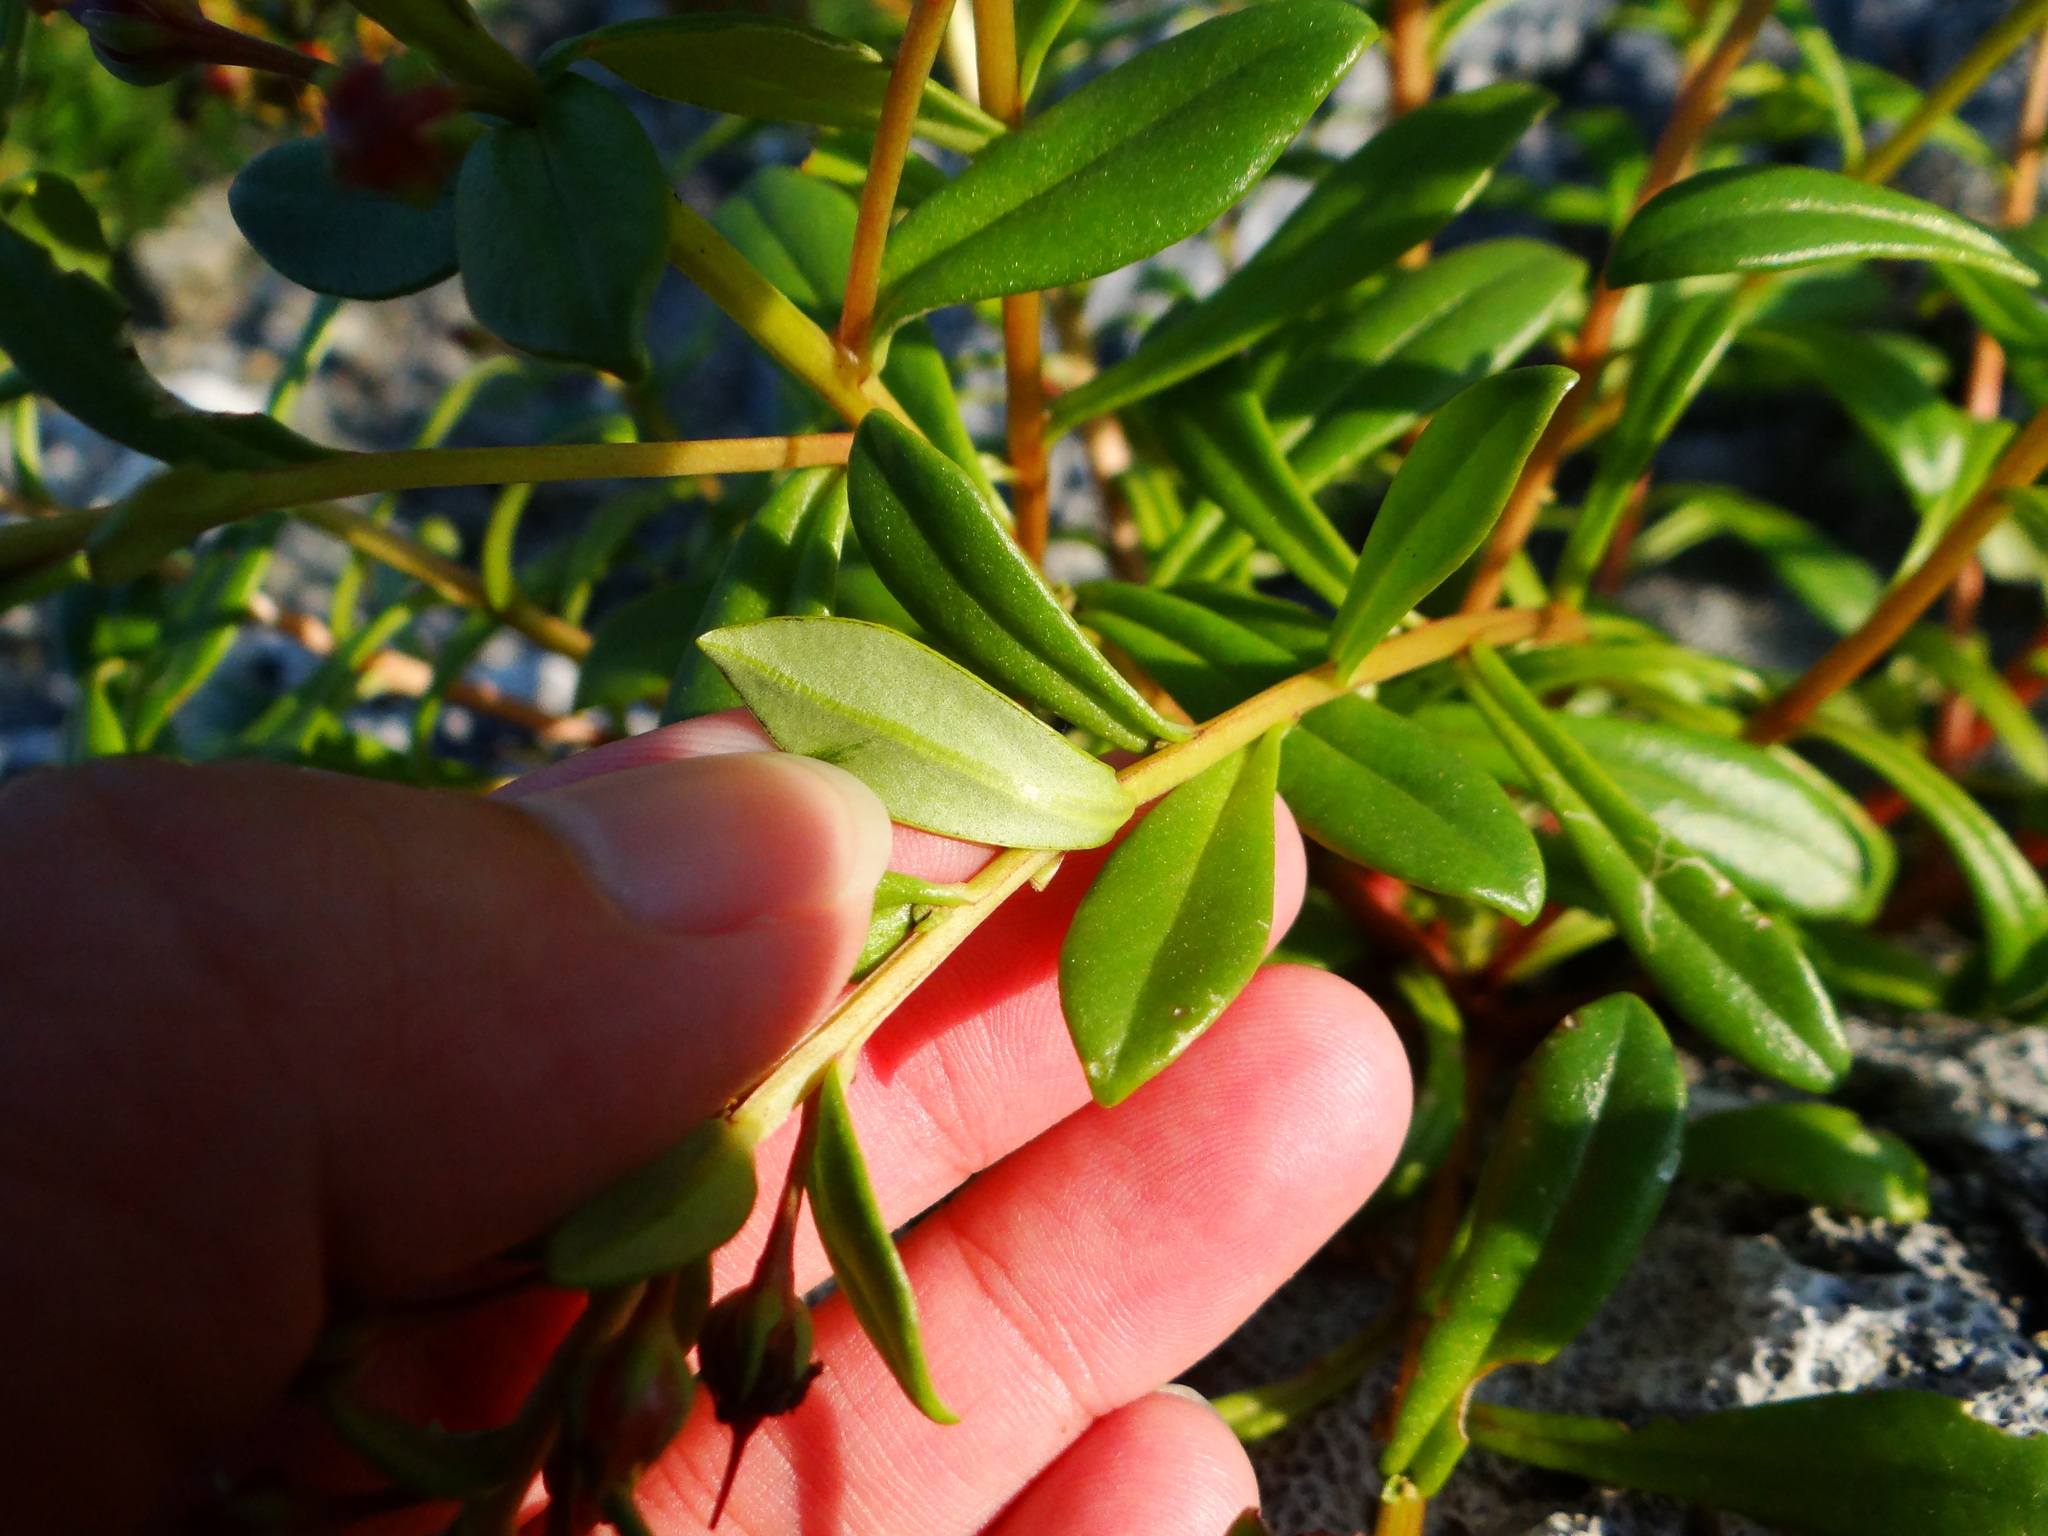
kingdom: Plantae
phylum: Tracheophyta
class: Magnoliopsida
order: Ericales
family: Primulaceae
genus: Lysimachia
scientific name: Lysimachia mauritiana
